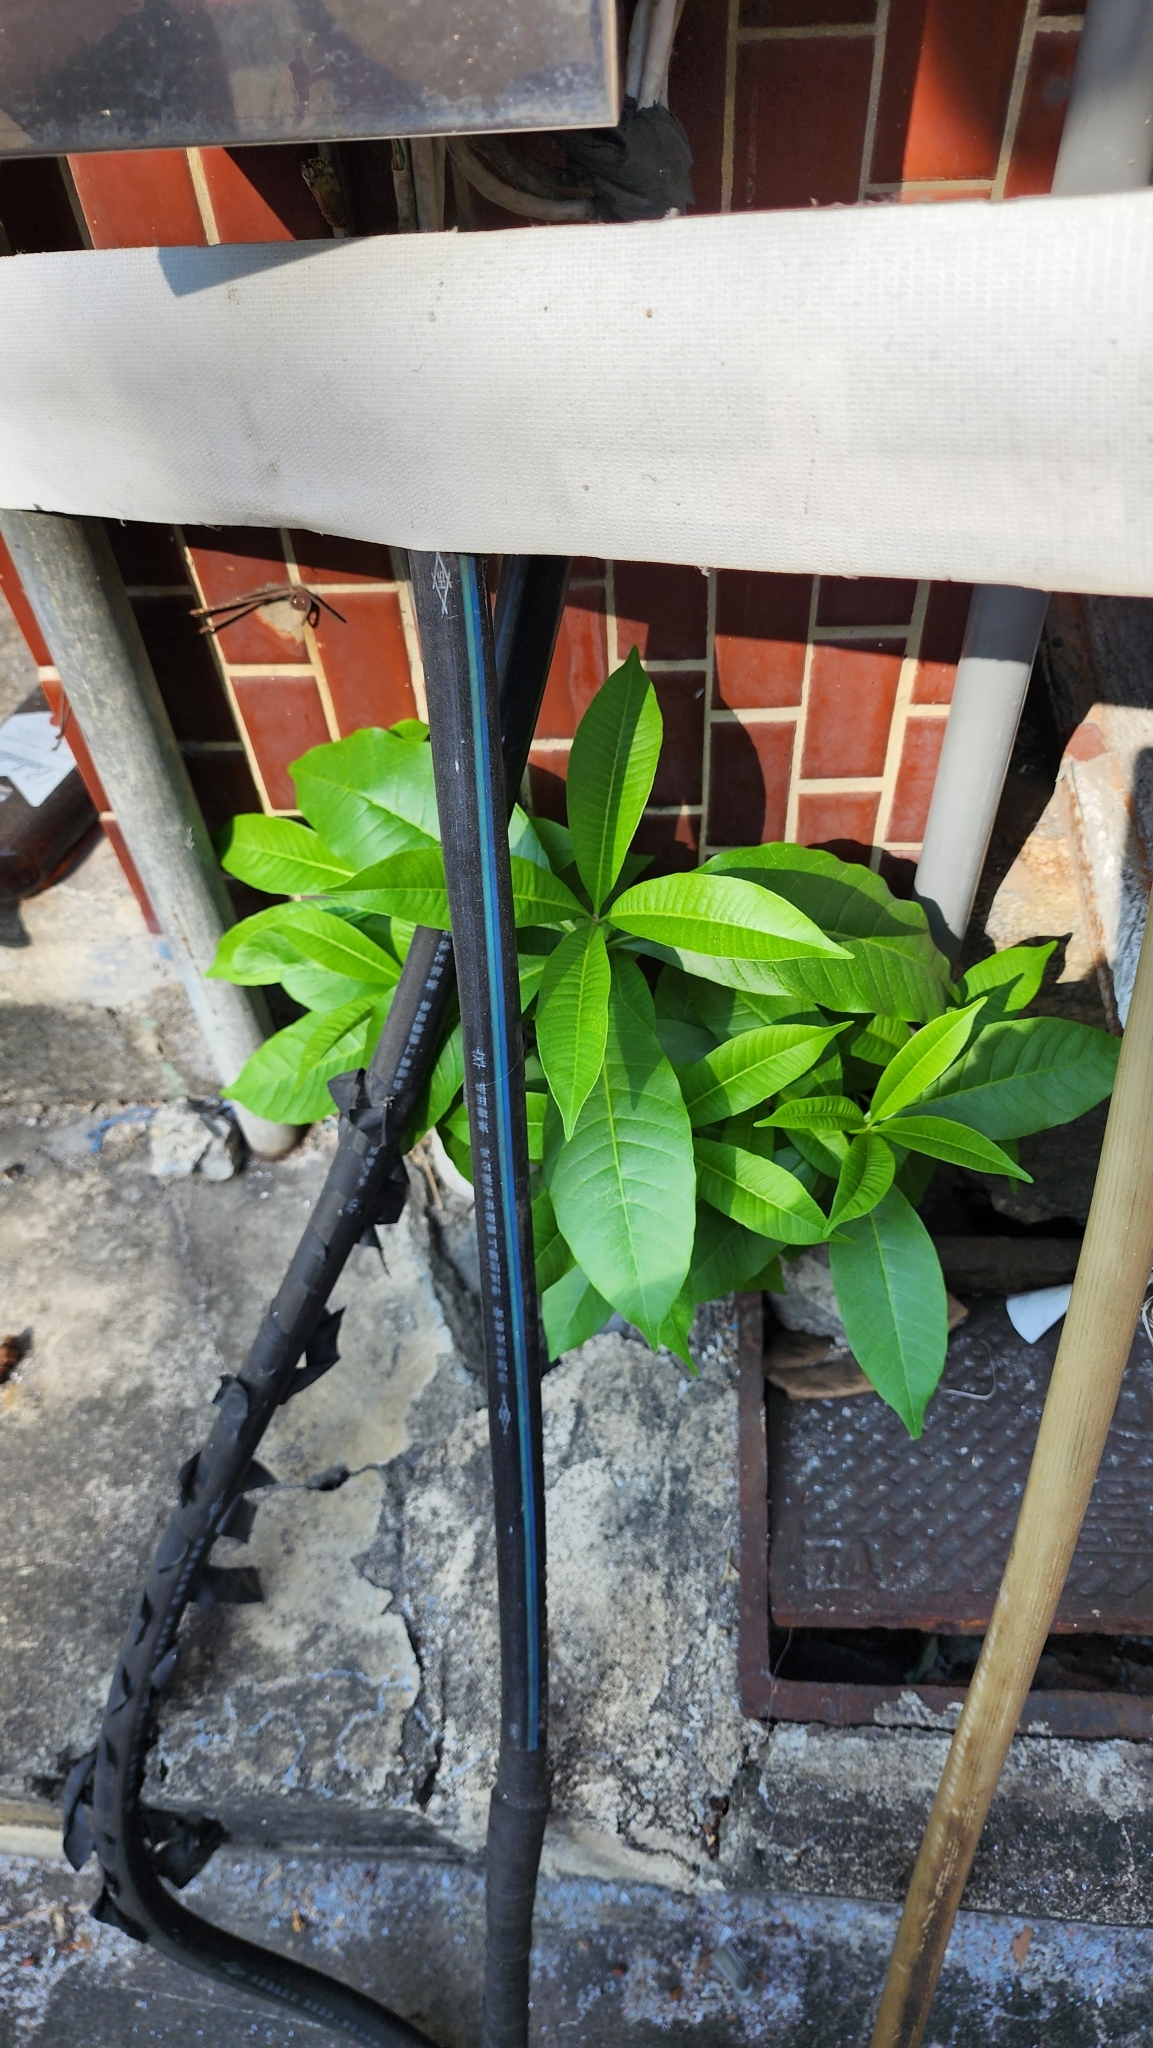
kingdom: Plantae
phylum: Tracheophyta
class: Magnoliopsida
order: Gentianales
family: Apocynaceae
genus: Alstonia
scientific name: Alstonia scholaris
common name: White cheesewood
